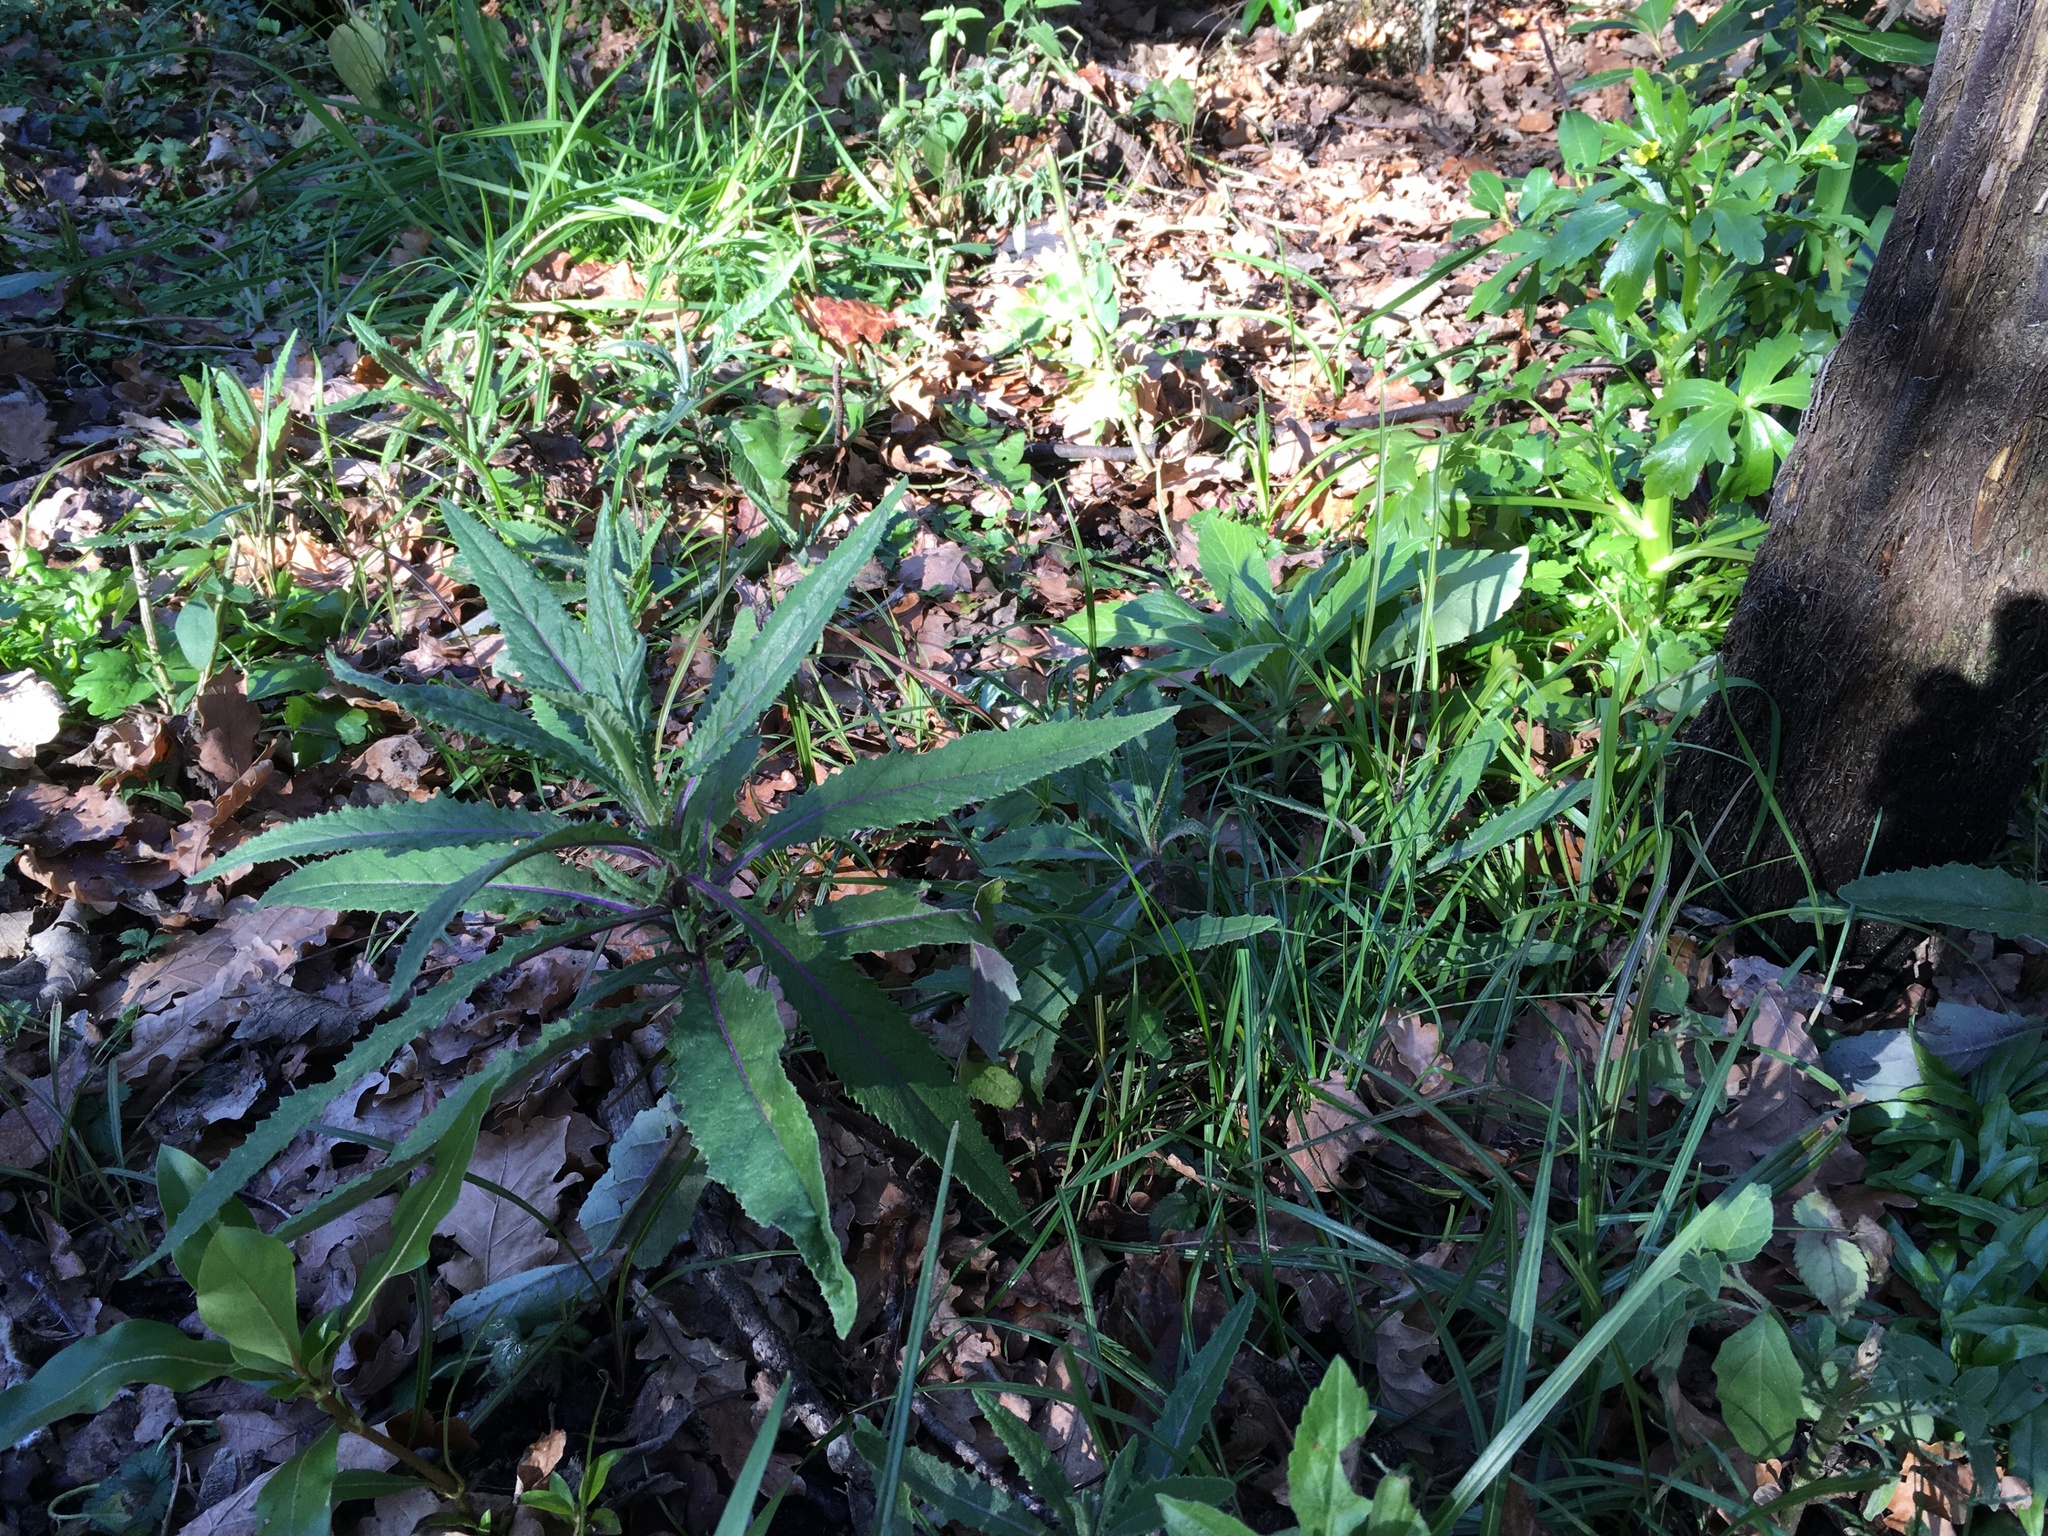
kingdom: Plantae
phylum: Tracheophyta
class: Magnoliopsida
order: Asterales
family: Asteraceae
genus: Senecio
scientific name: Senecio minimus
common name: Toothed fireweed
